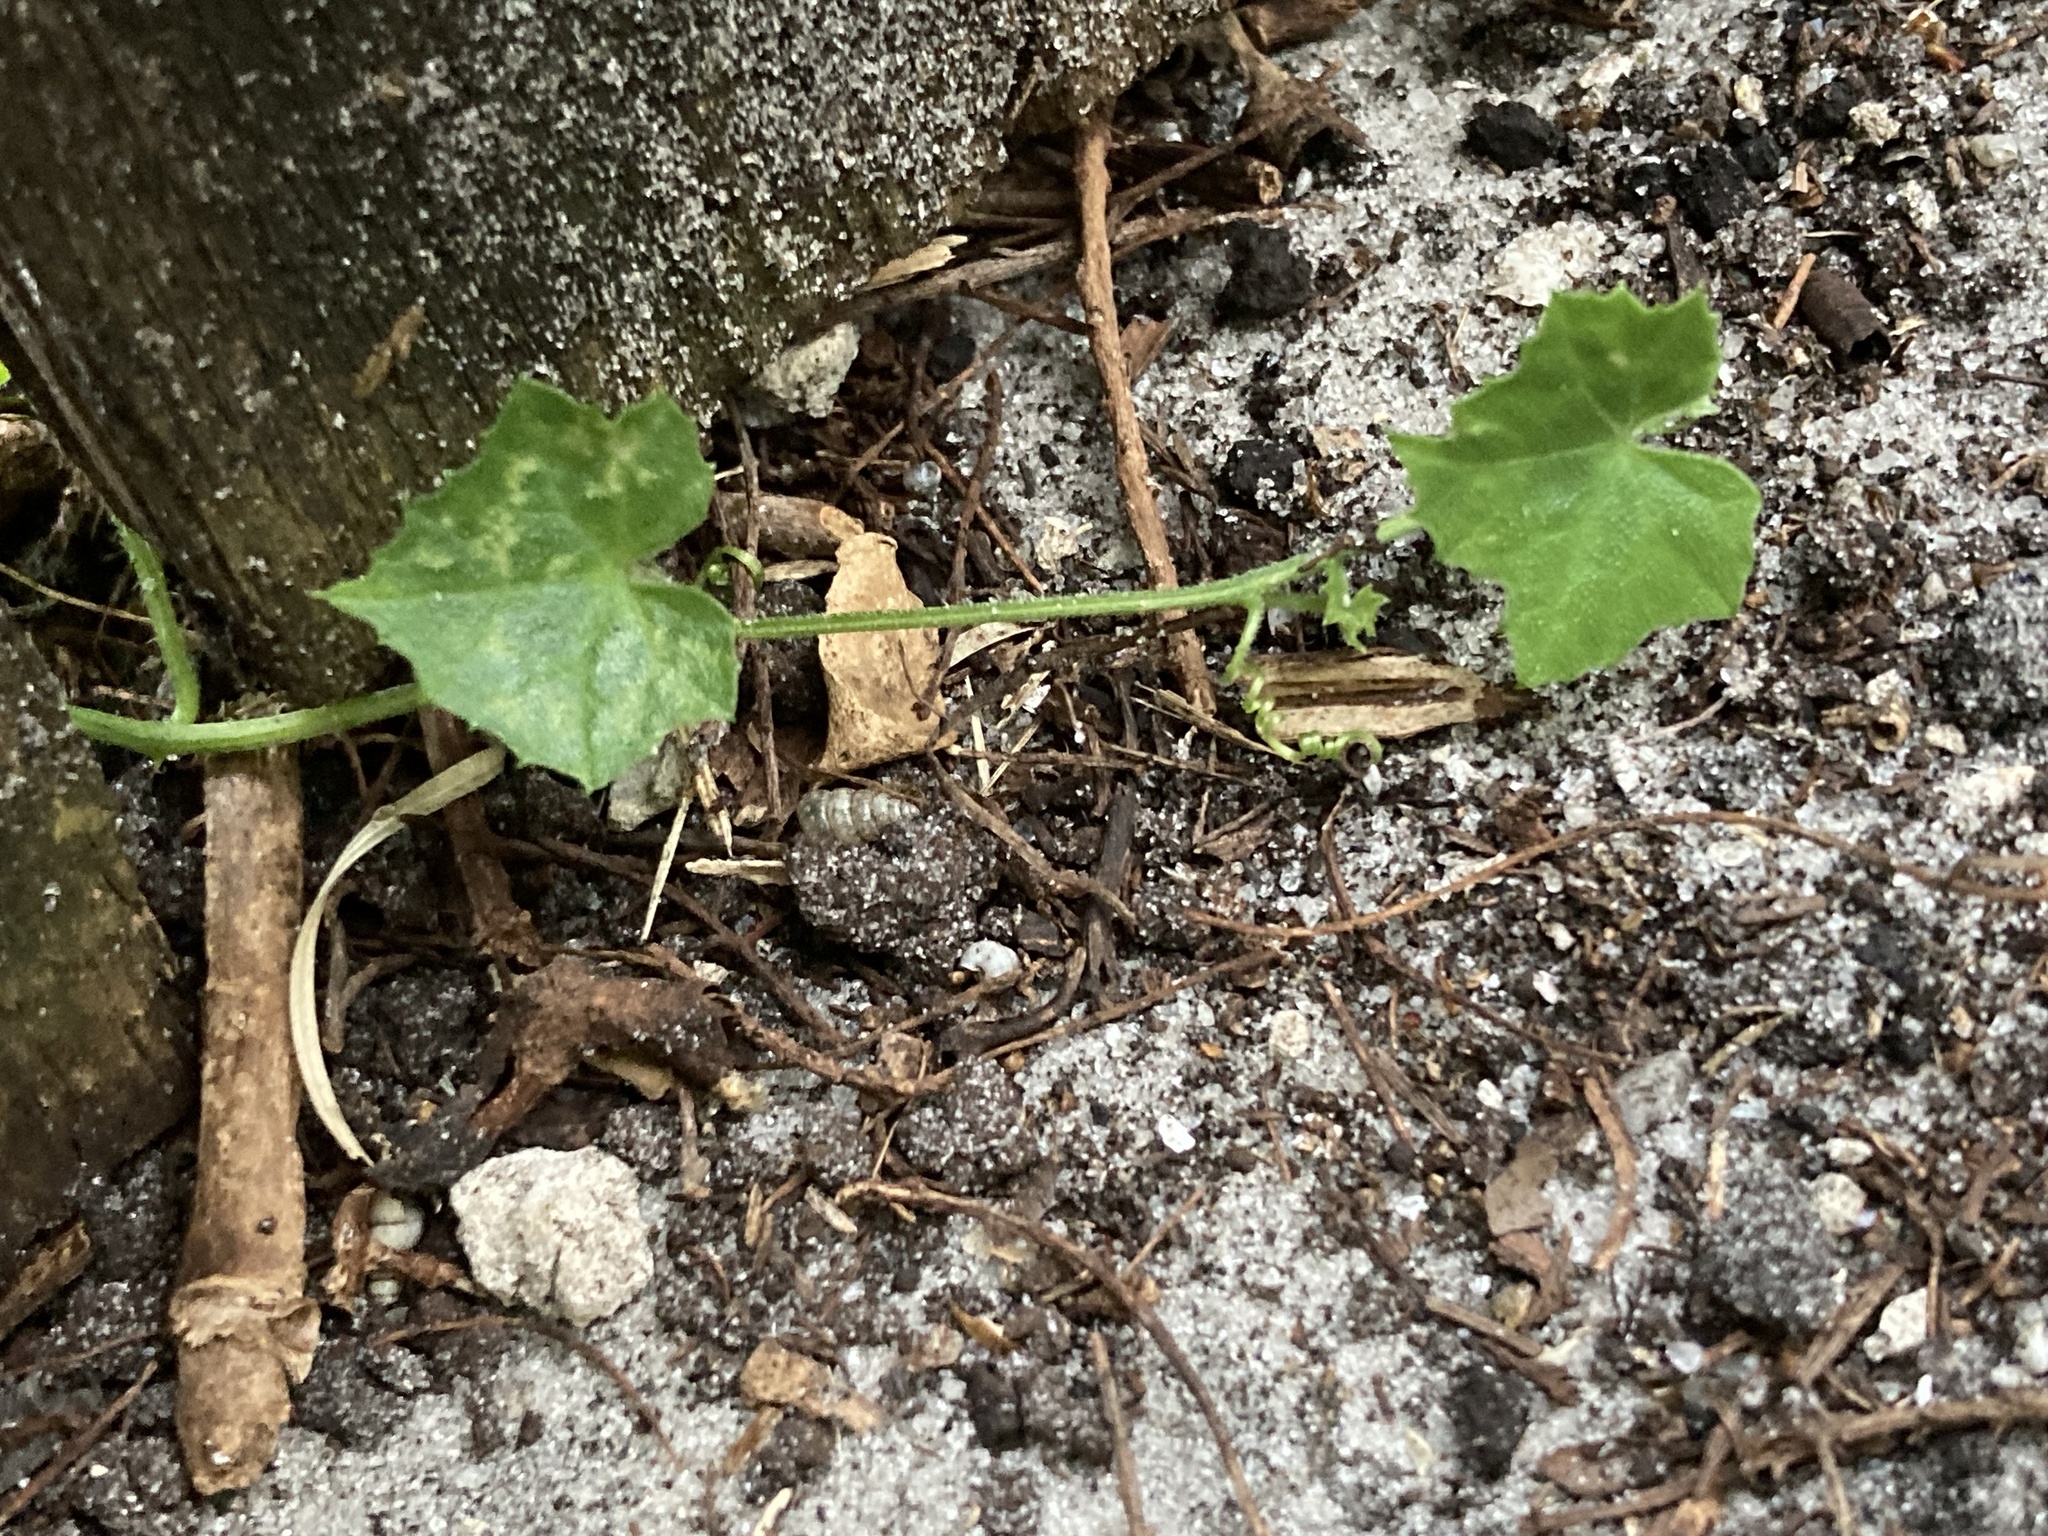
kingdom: Plantae
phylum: Tracheophyta
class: Magnoliopsida
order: Cucurbitales
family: Cucurbitaceae
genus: Melothria
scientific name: Melothria pendula
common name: Creeping-cucumber
